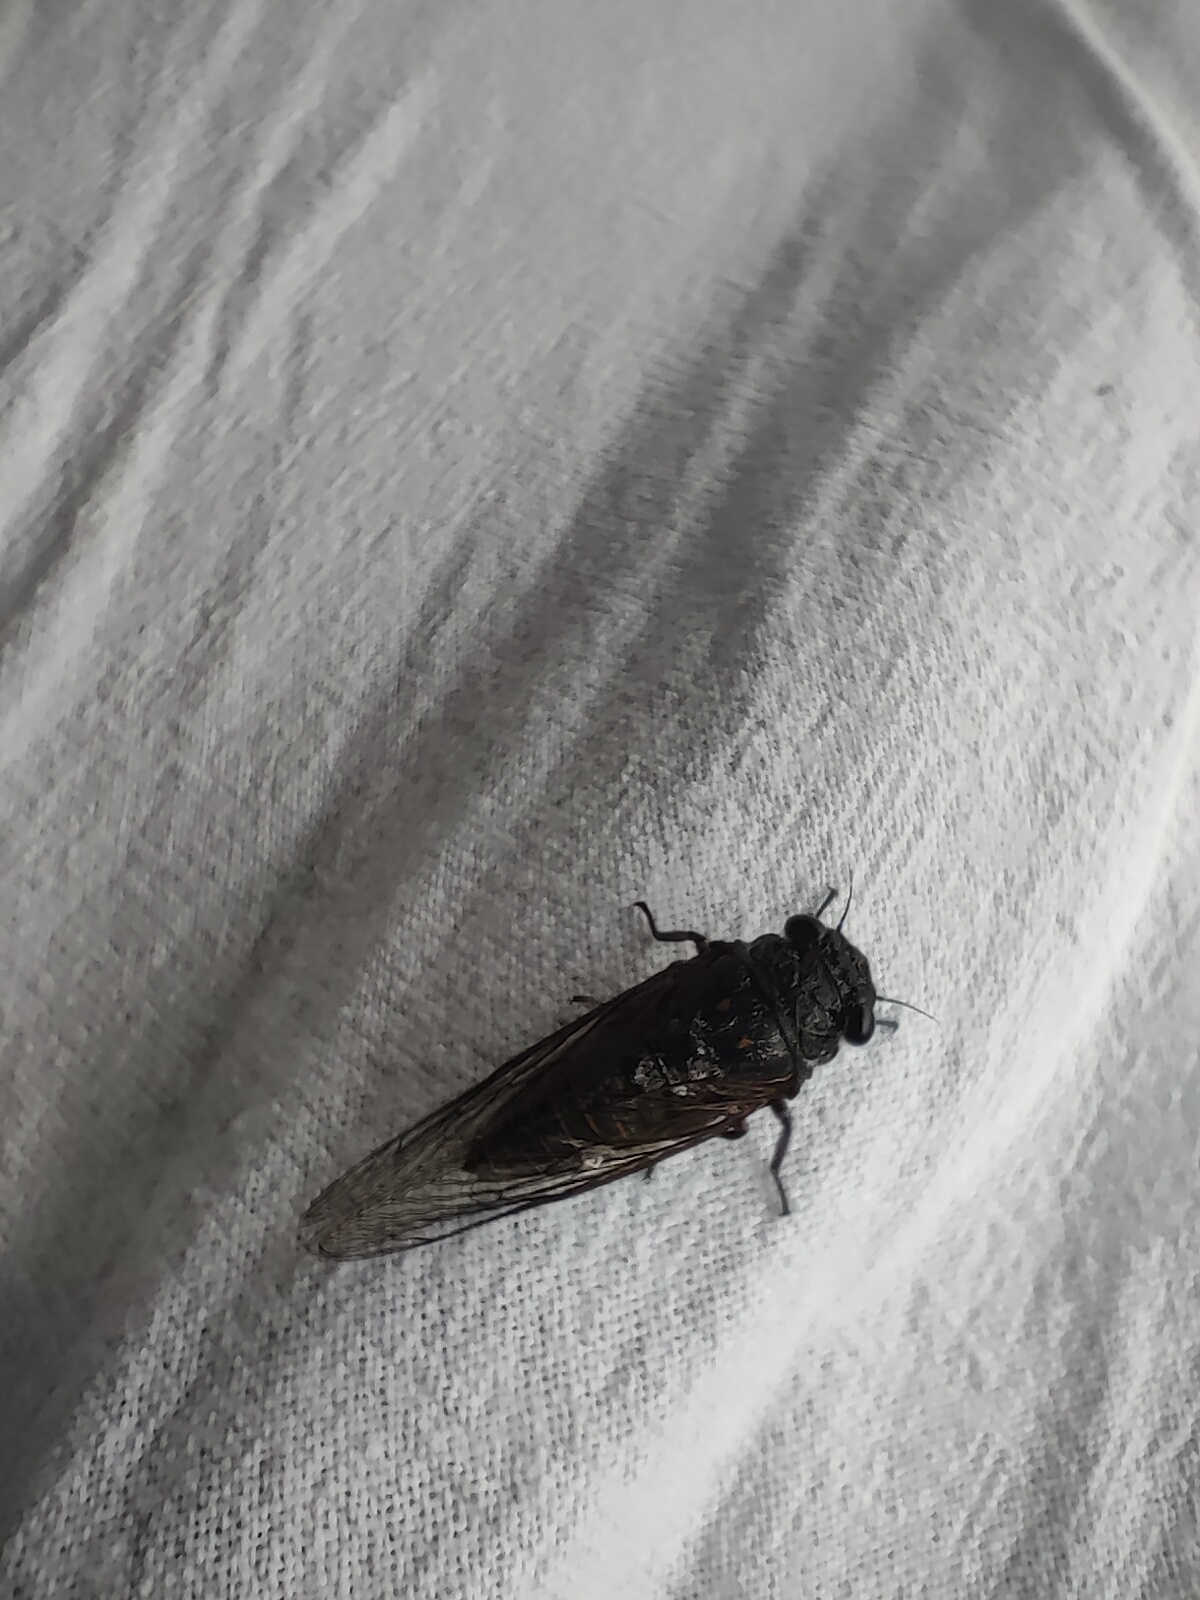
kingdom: Animalia
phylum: Arthropoda
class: Insecta
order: Hemiptera
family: Cicadidae
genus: Dimissalna
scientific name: Dimissalna dimissa
